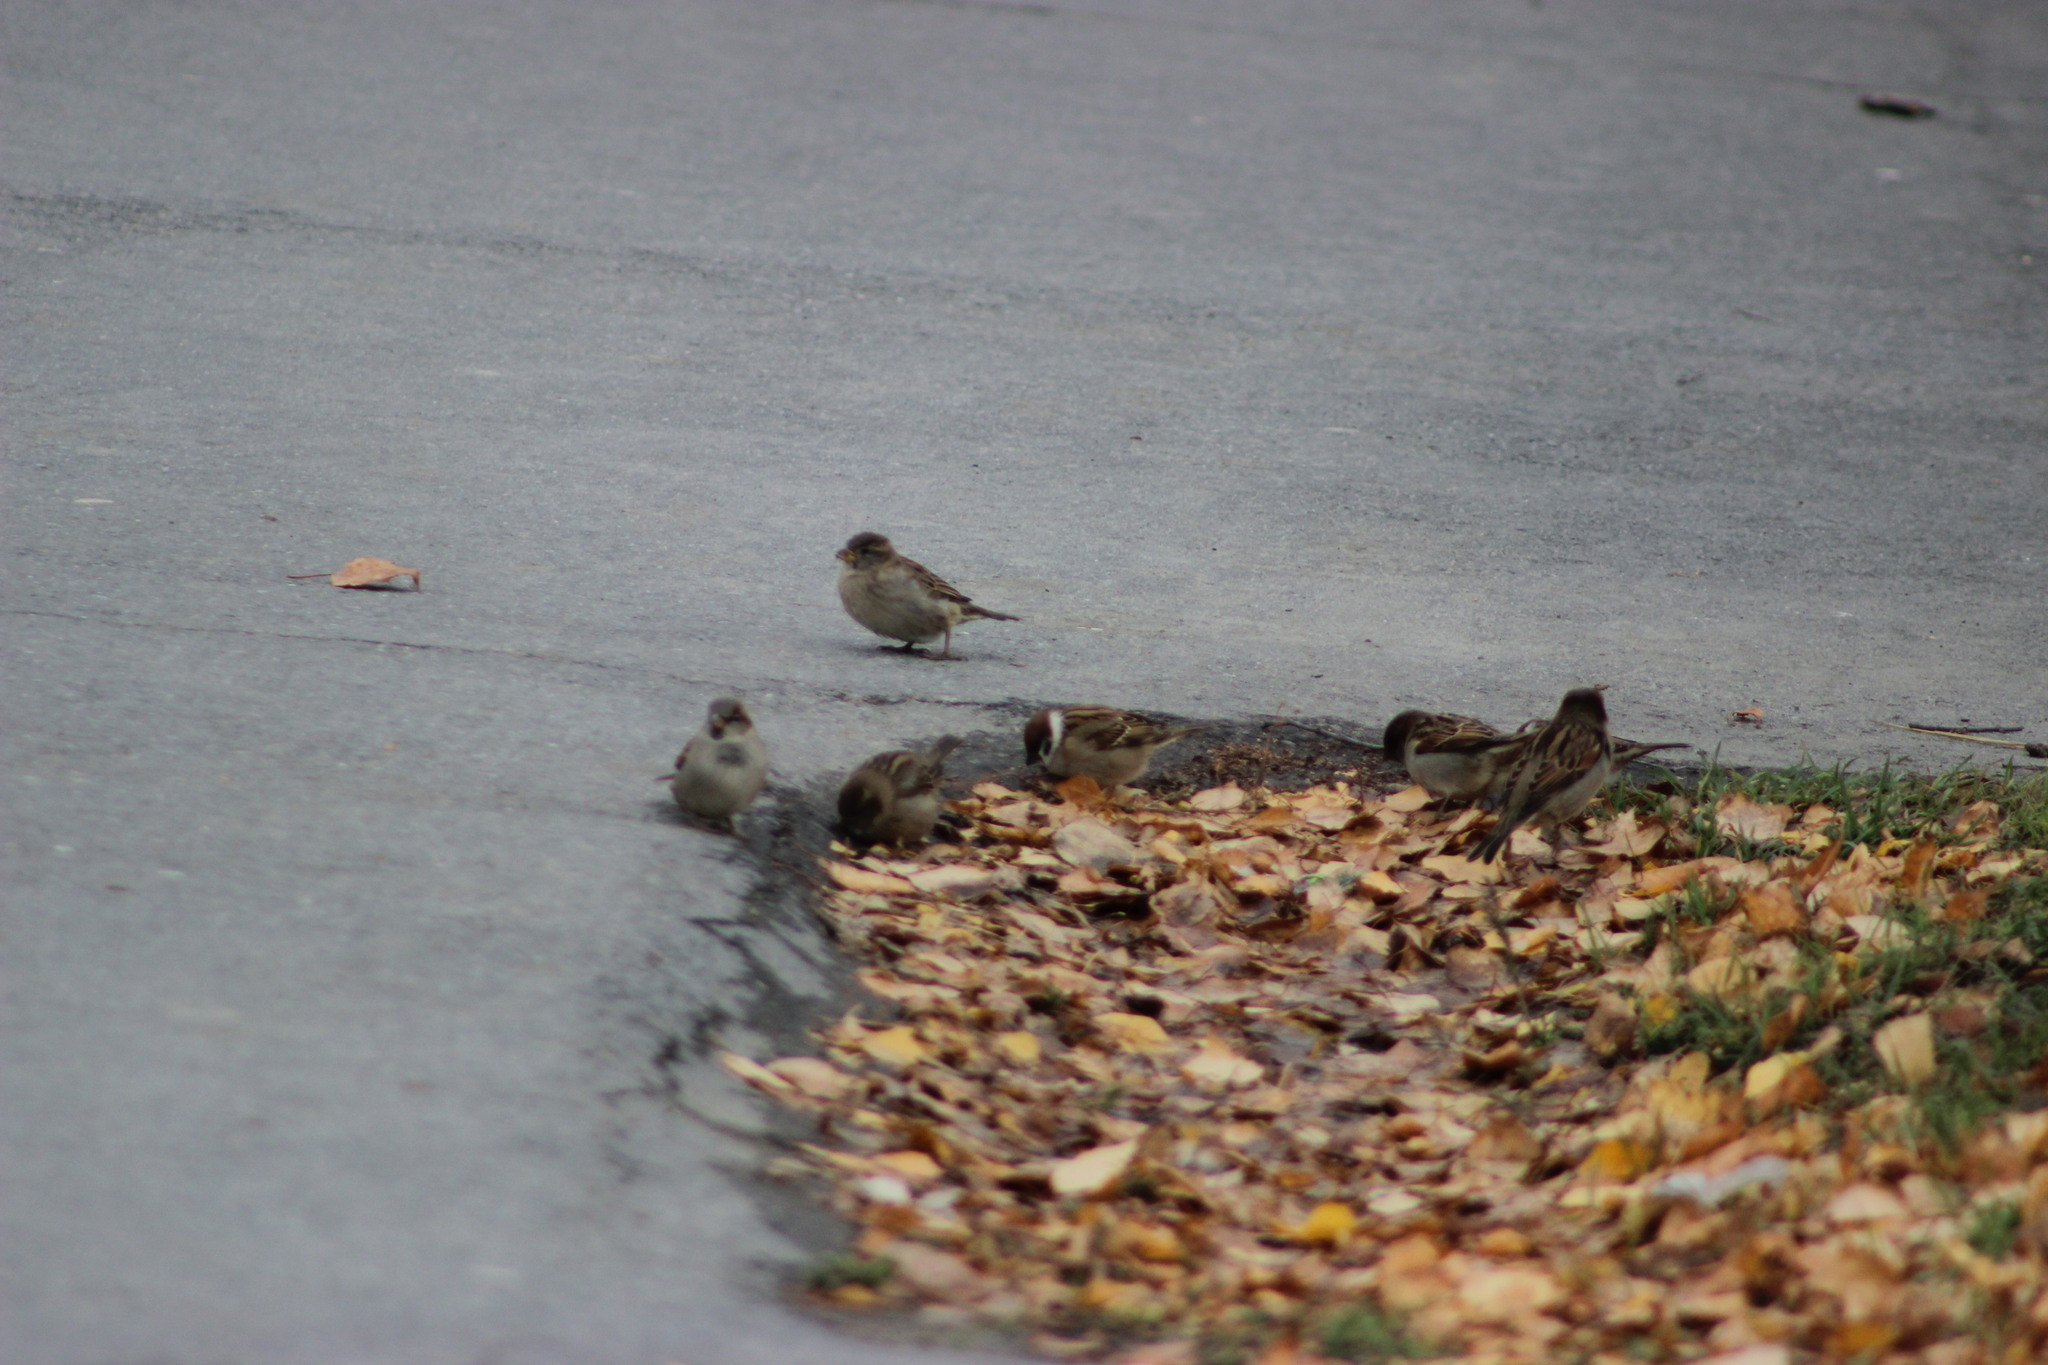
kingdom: Animalia
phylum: Chordata
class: Aves
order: Passeriformes
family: Passeridae
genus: Passer
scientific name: Passer domesticus
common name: House sparrow
